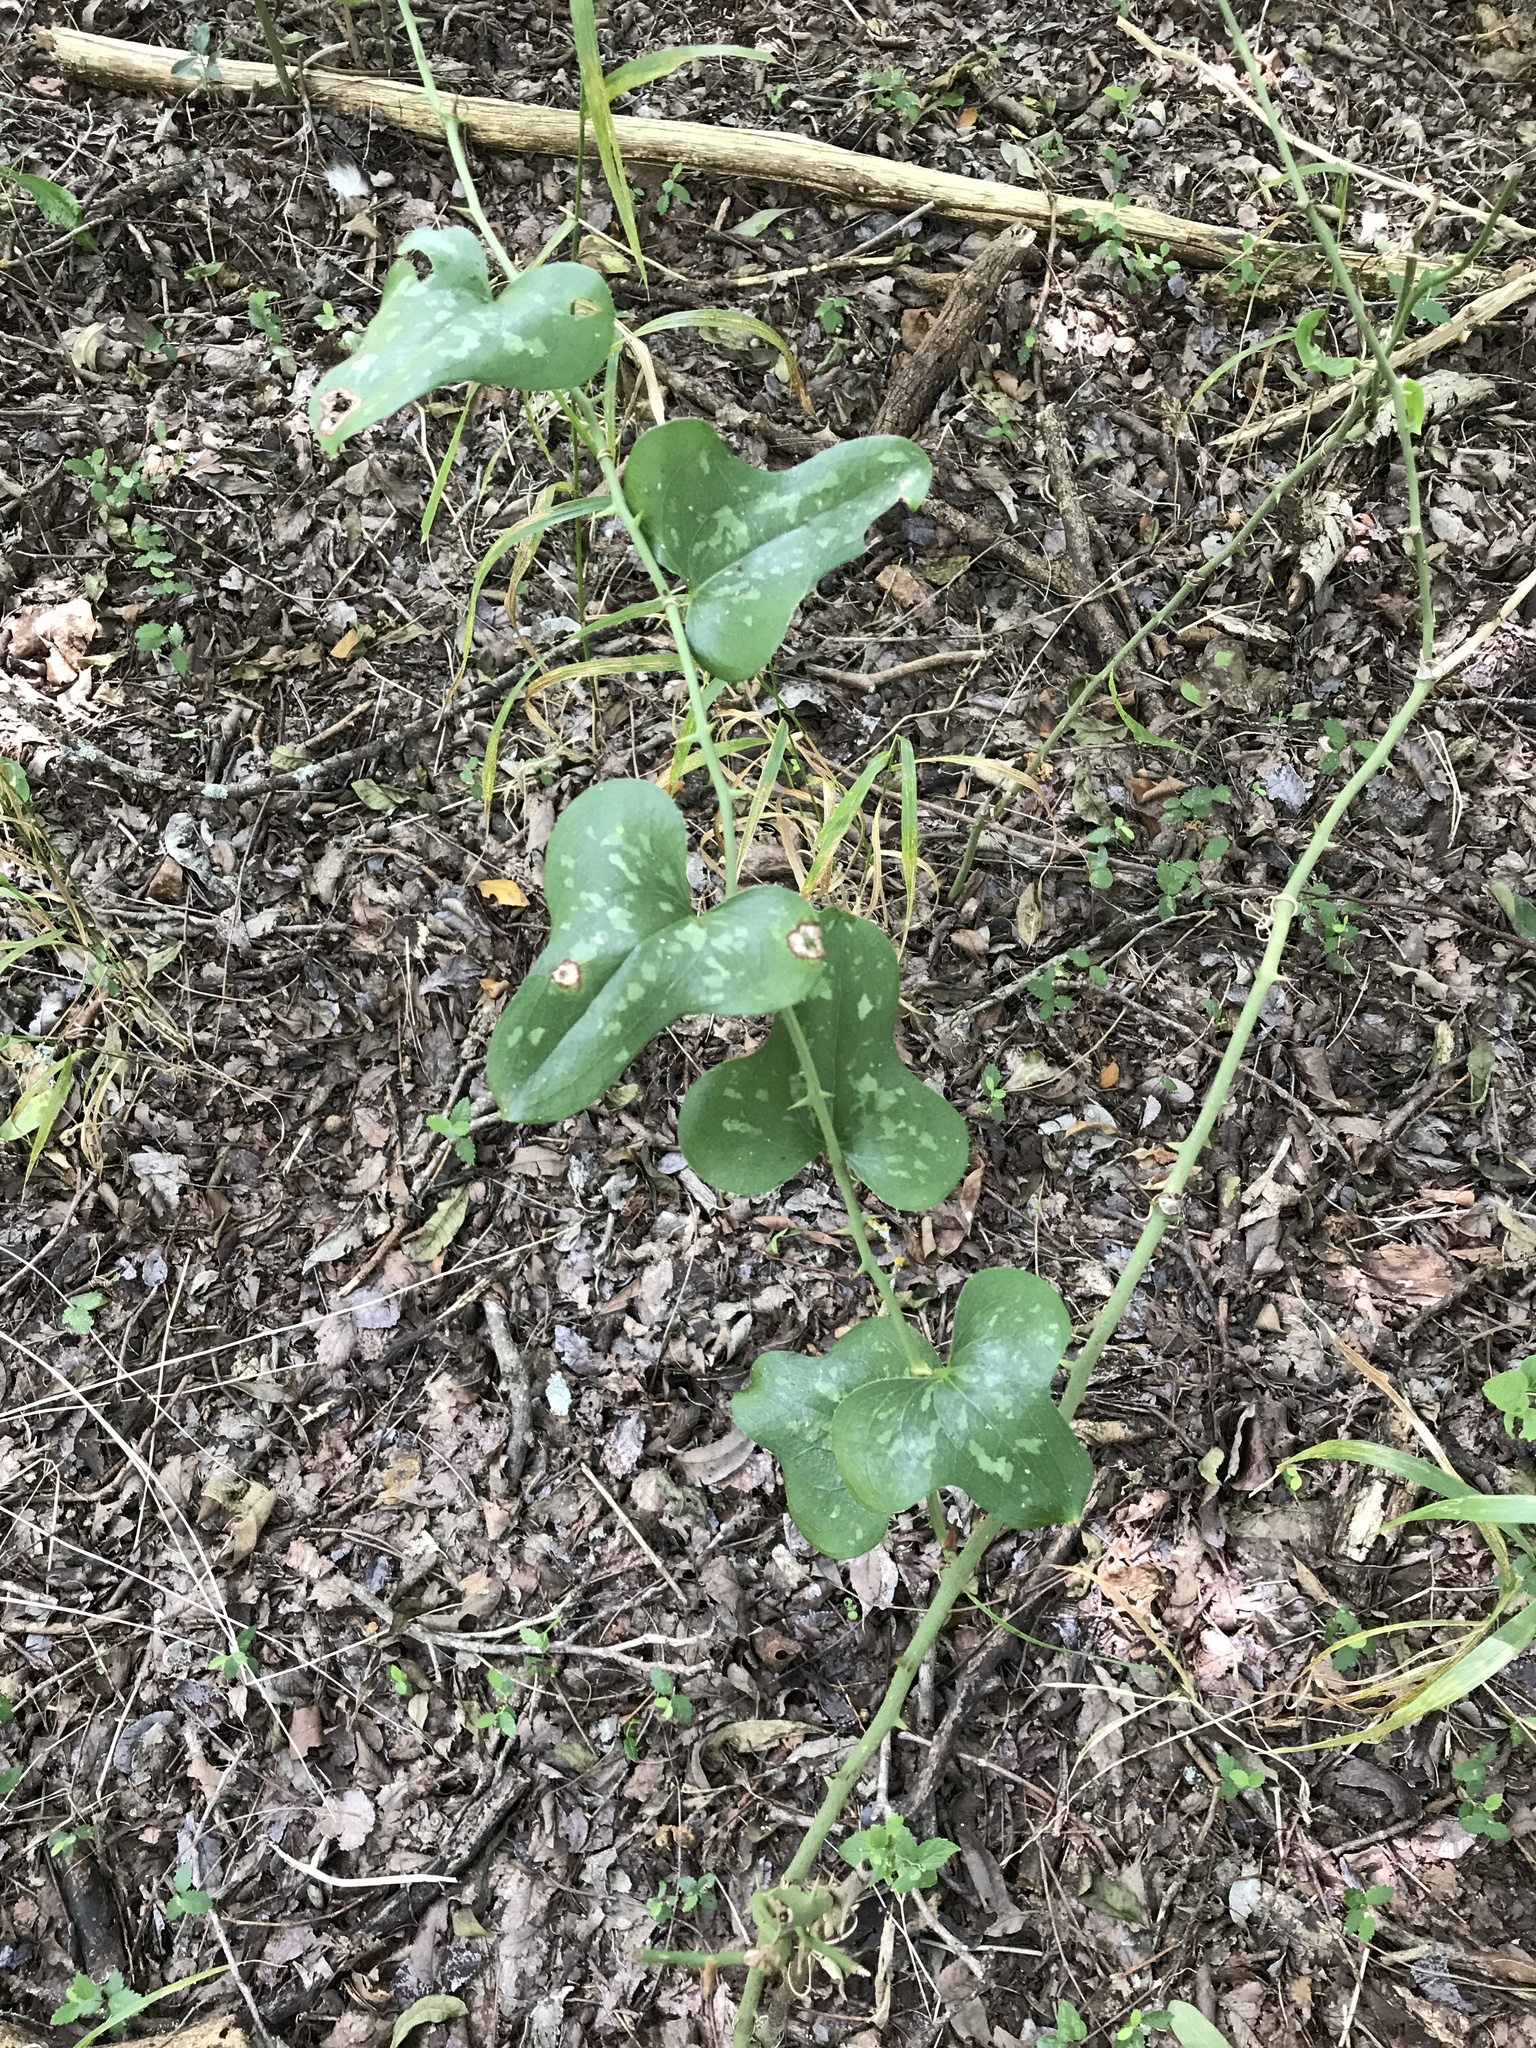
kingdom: Plantae
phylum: Tracheophyta
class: Liliopsida
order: Liliales
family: Smilacaceae
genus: Smilax
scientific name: Smilax bona-nox
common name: Catbrier
